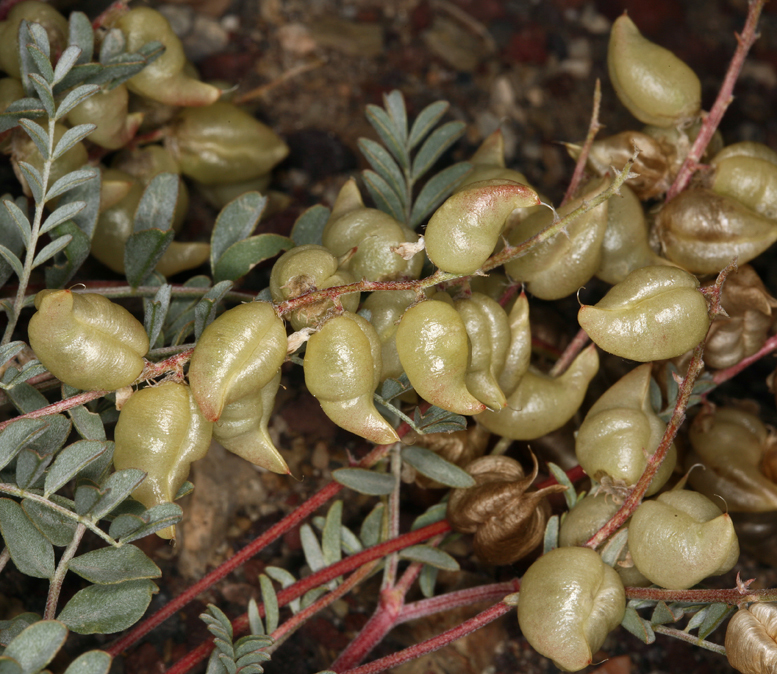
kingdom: Plantae
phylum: Tracheophyta
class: Magnoliopsida
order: Fabales
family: Fabaceae
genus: Astragalus
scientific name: Astragalus lentiginosus
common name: Freckled milkvetch
